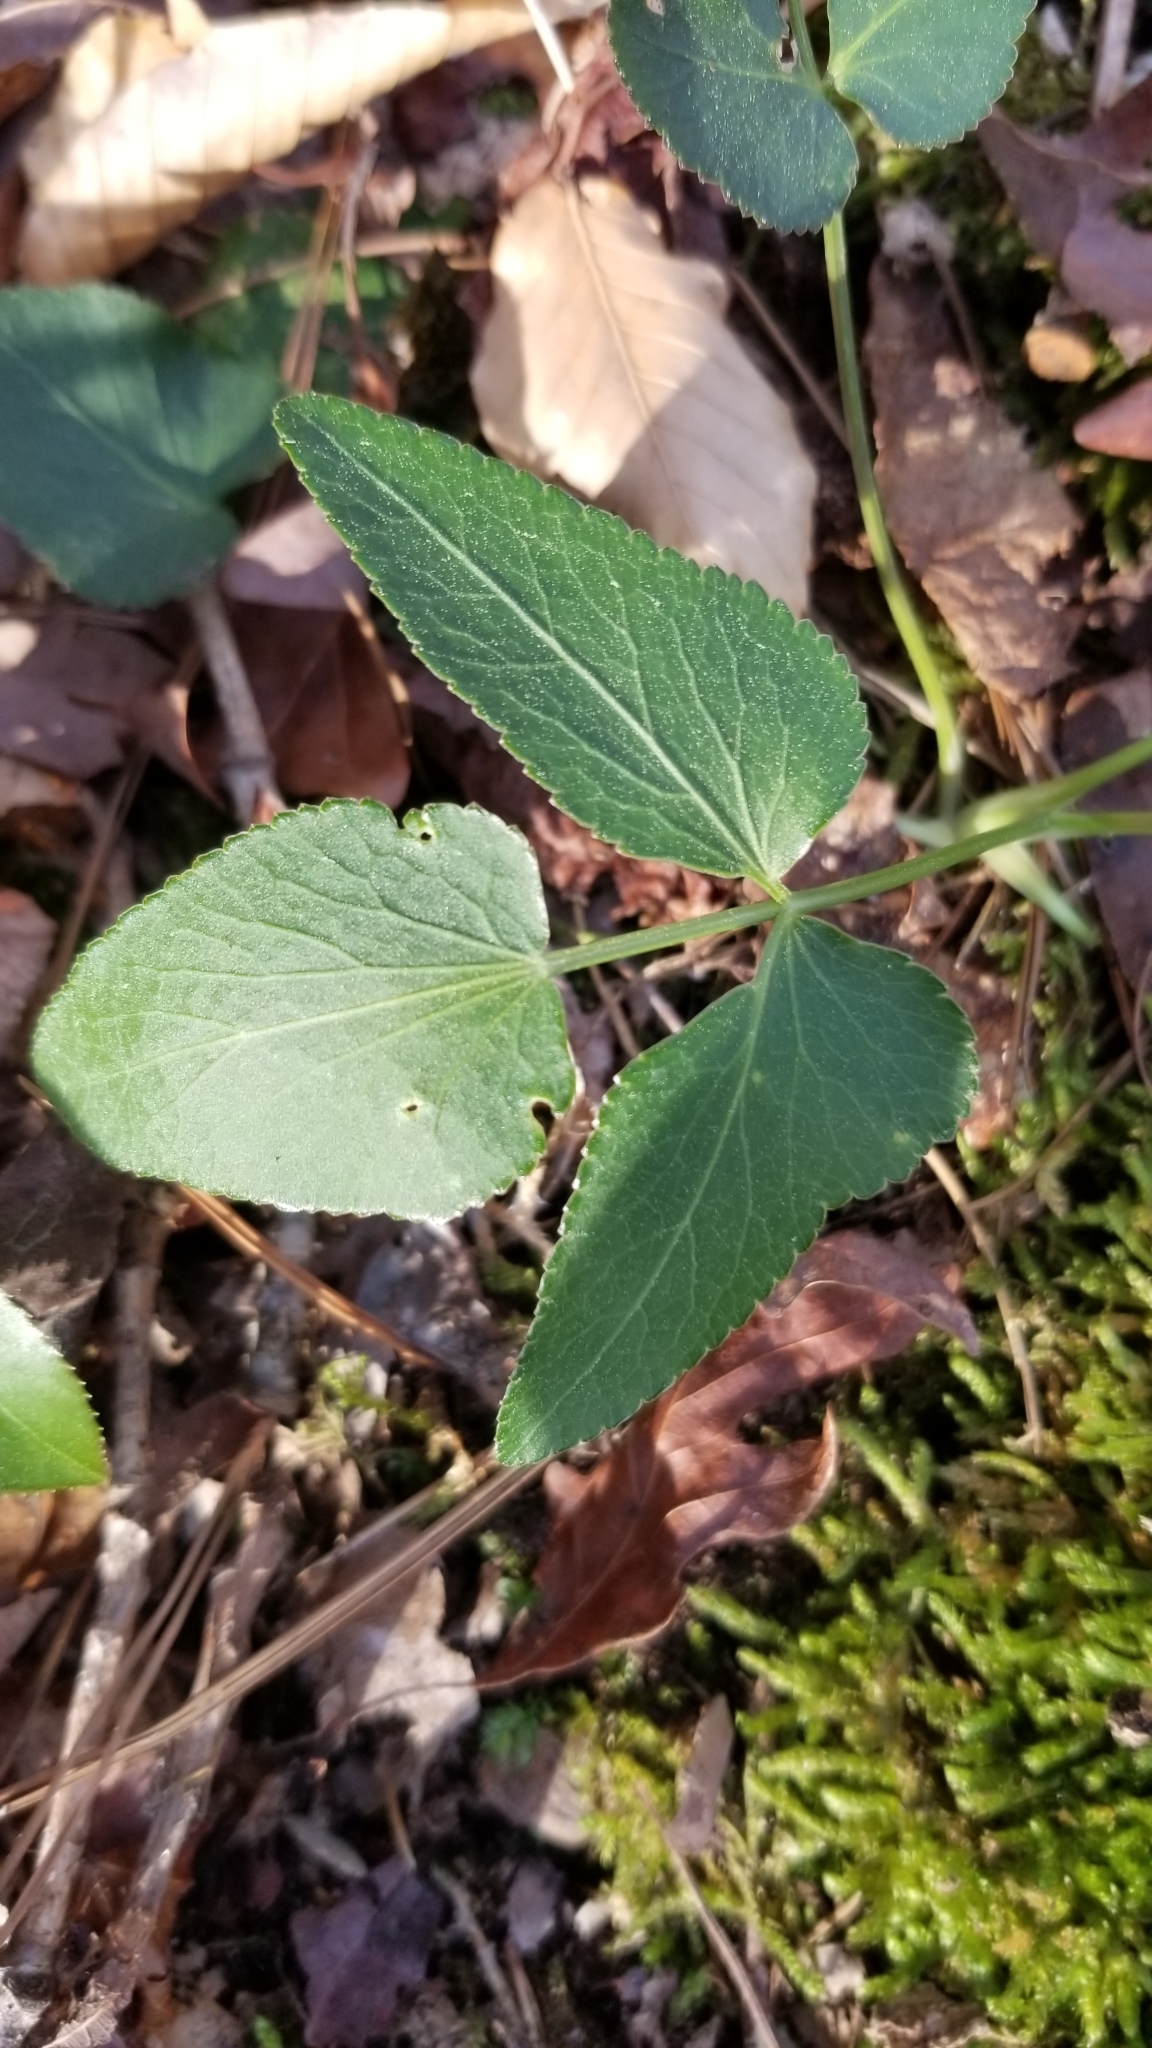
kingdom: Plantae
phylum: Tracheophyta
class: Magnoliopsida
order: Apiales
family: Apiaceae
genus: Thaspium
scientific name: Thaspium trifoliatum
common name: Purple meadow-parsnip
